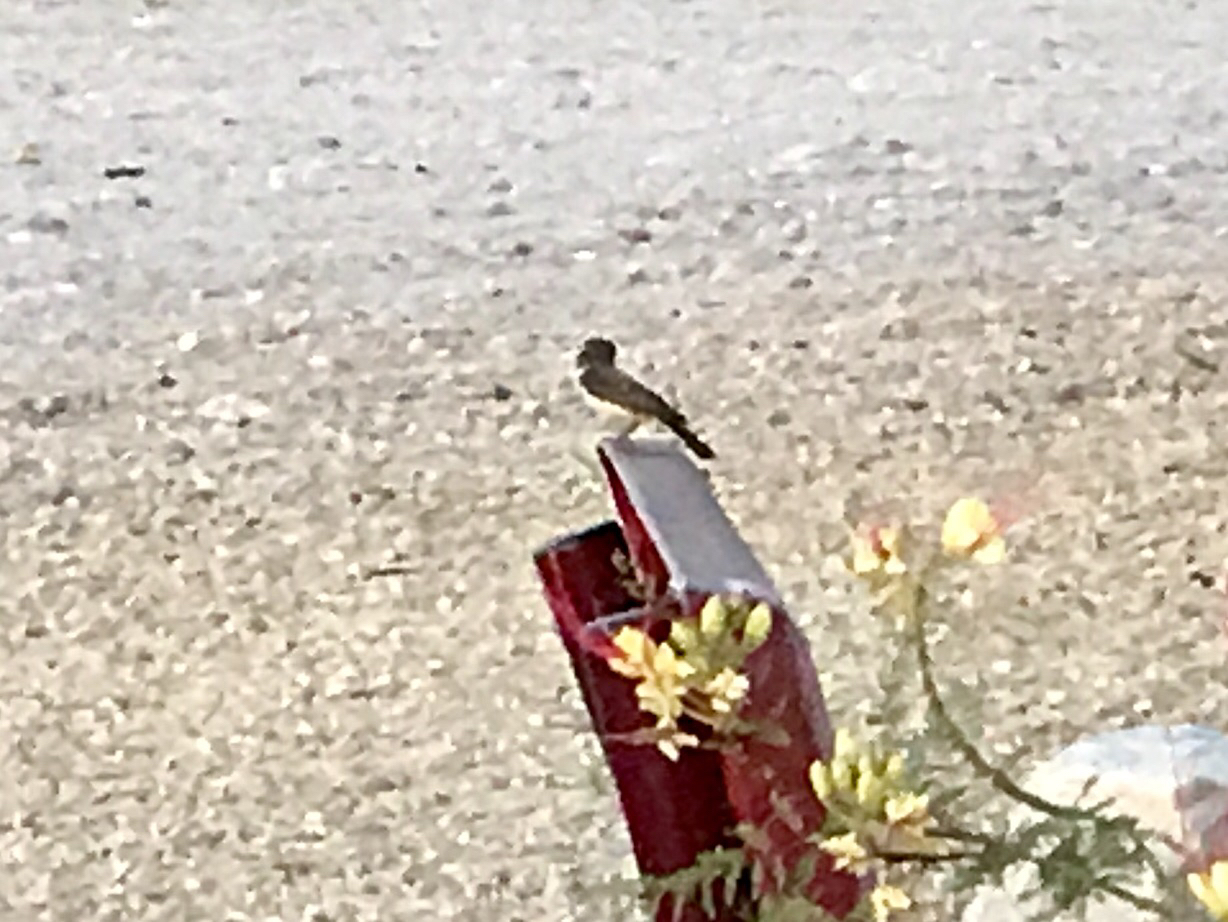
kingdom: Animalia
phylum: Chordata
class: Aves
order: Passeriformes
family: Tyrannidae
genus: Pyrocephalus
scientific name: Pyrocephalus rubinus
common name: Vermilion flycatcher
